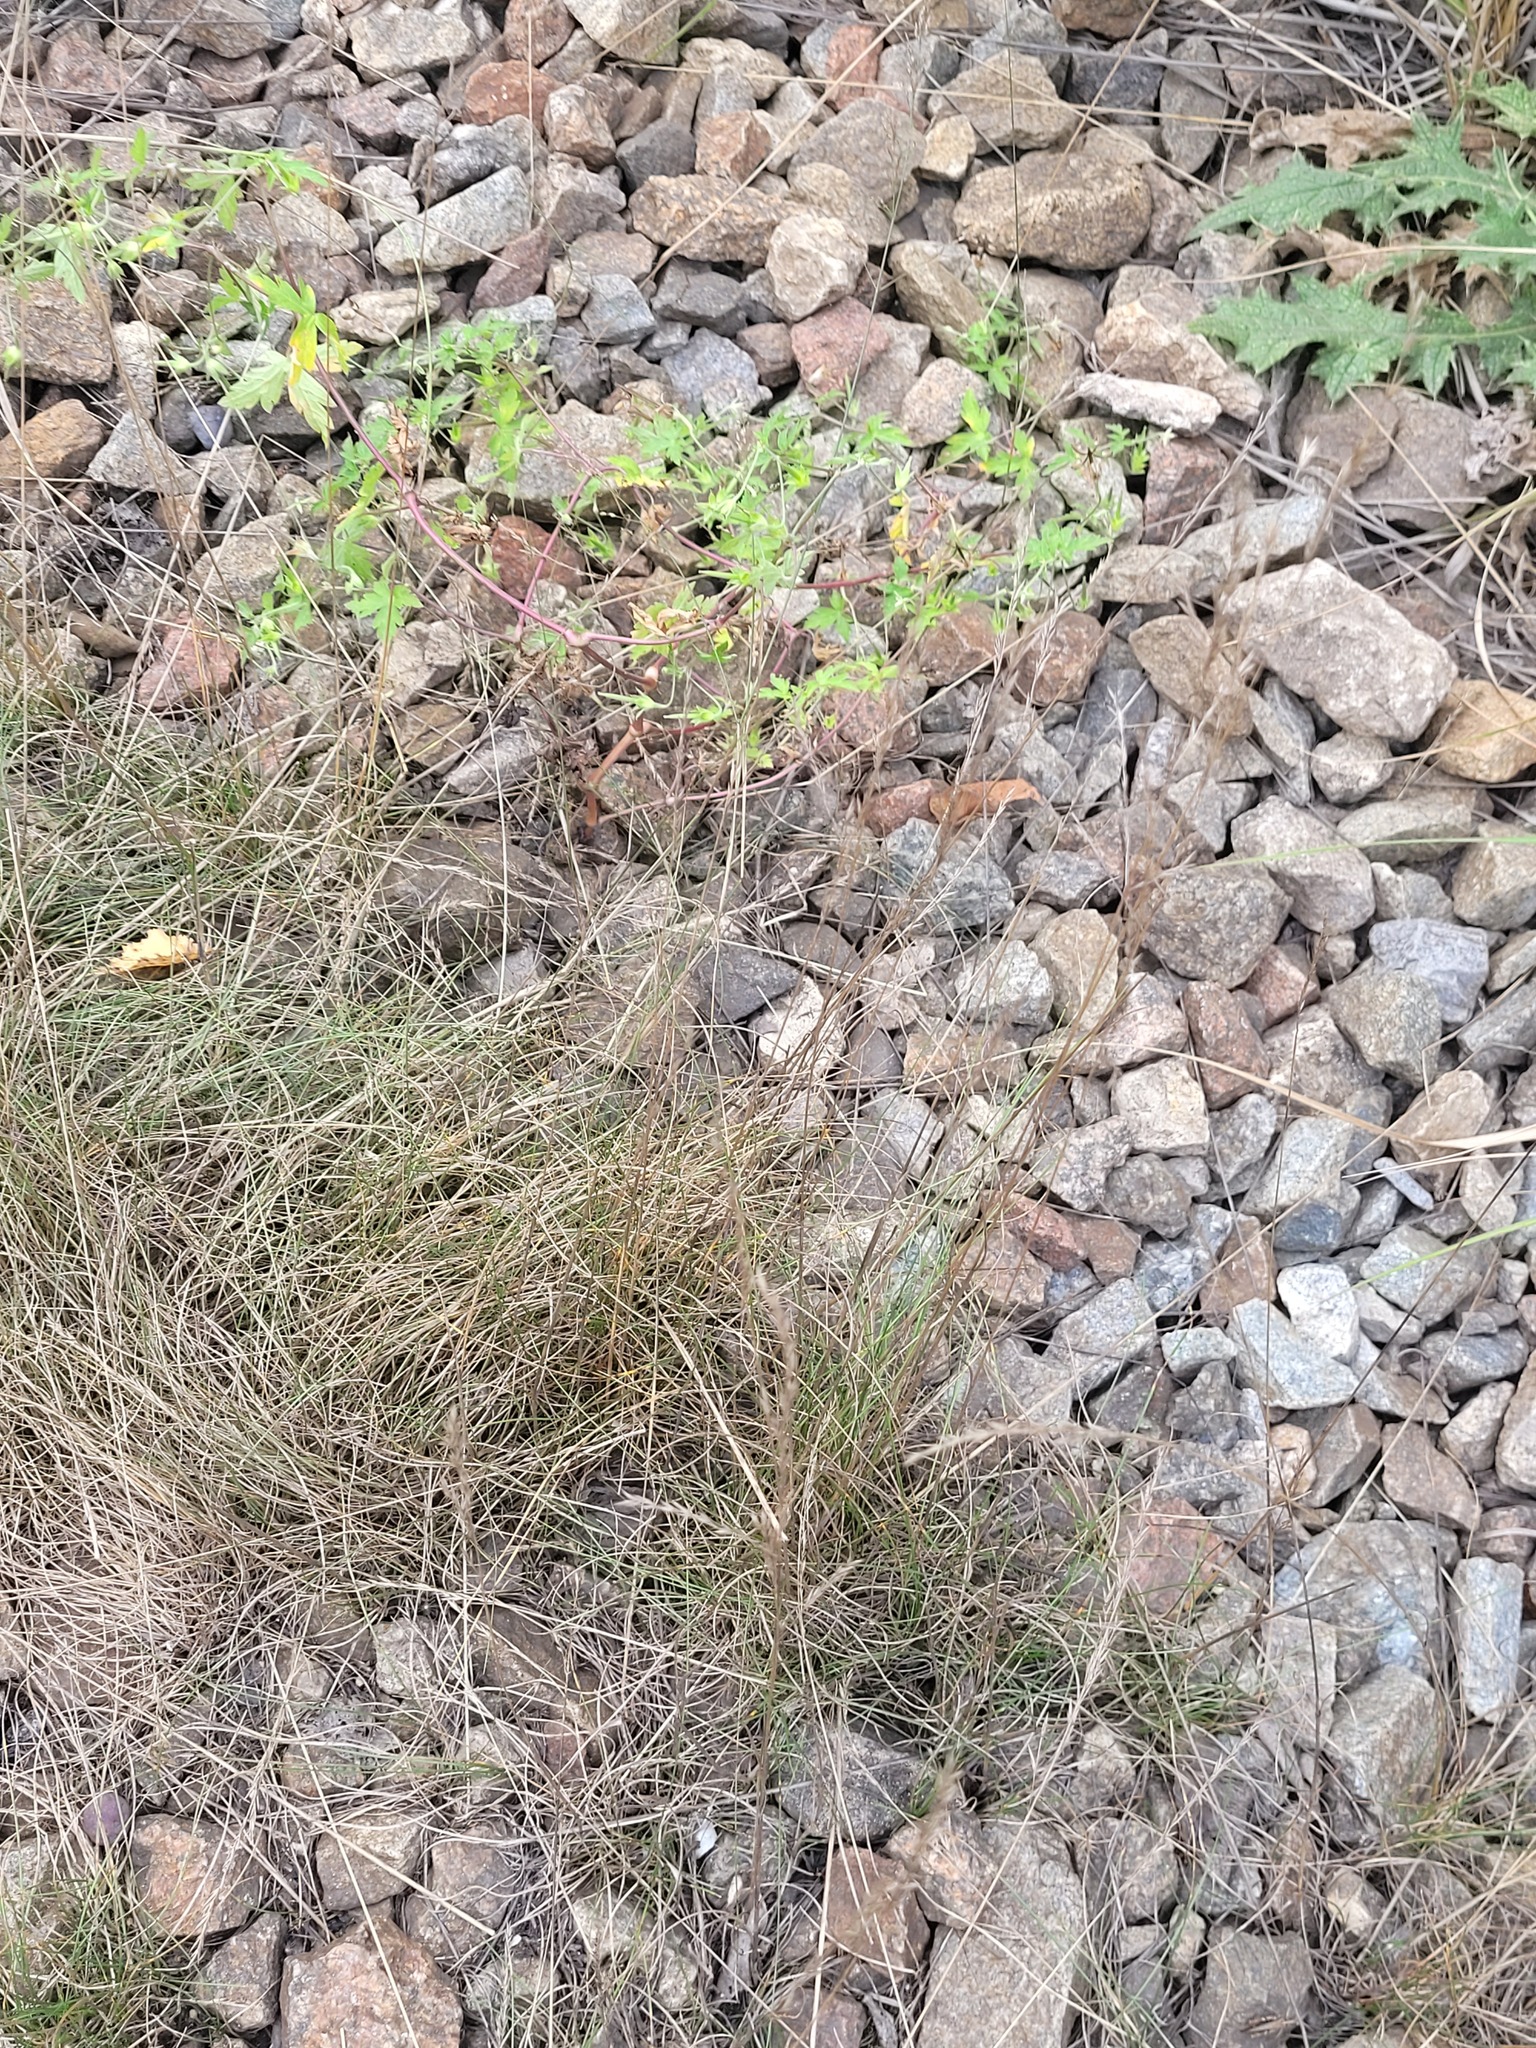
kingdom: Plantae
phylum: Tracheophyta
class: Liliopsida
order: Poales
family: Poaceae
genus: Festuca
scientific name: Festuca rubra
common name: Red fescue
